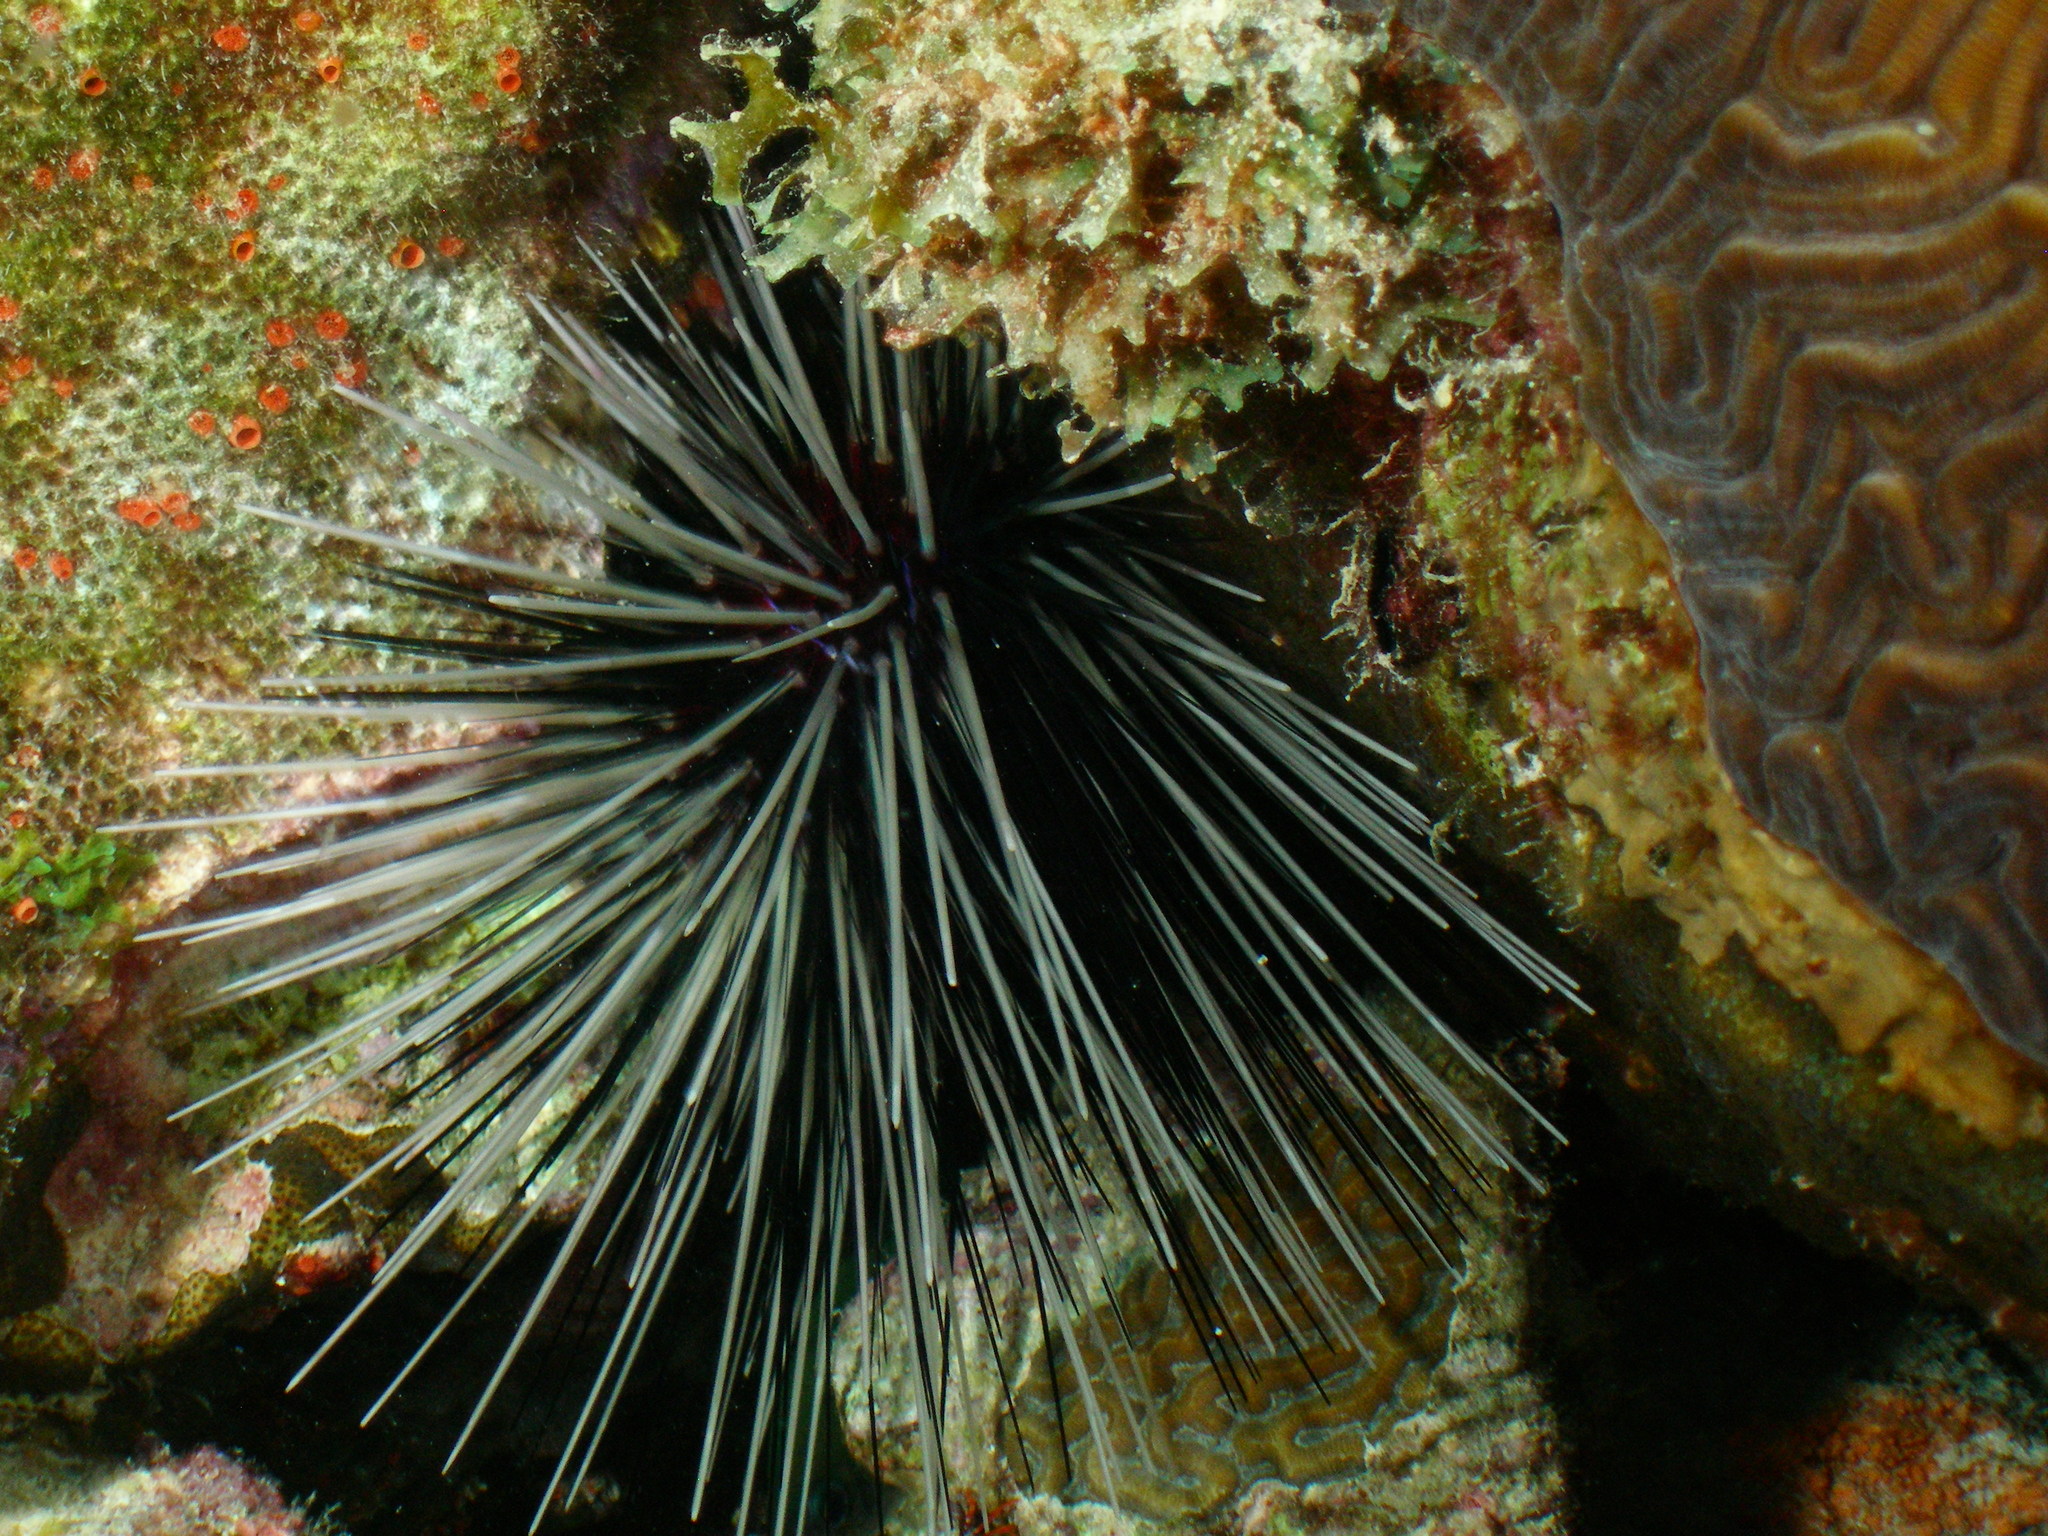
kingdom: Animalia
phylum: Echinodermata
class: Echinoidea
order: Diadematoida
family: Diadematidae
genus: Diadema
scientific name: Diadema antillarum
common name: Spiny urchin
